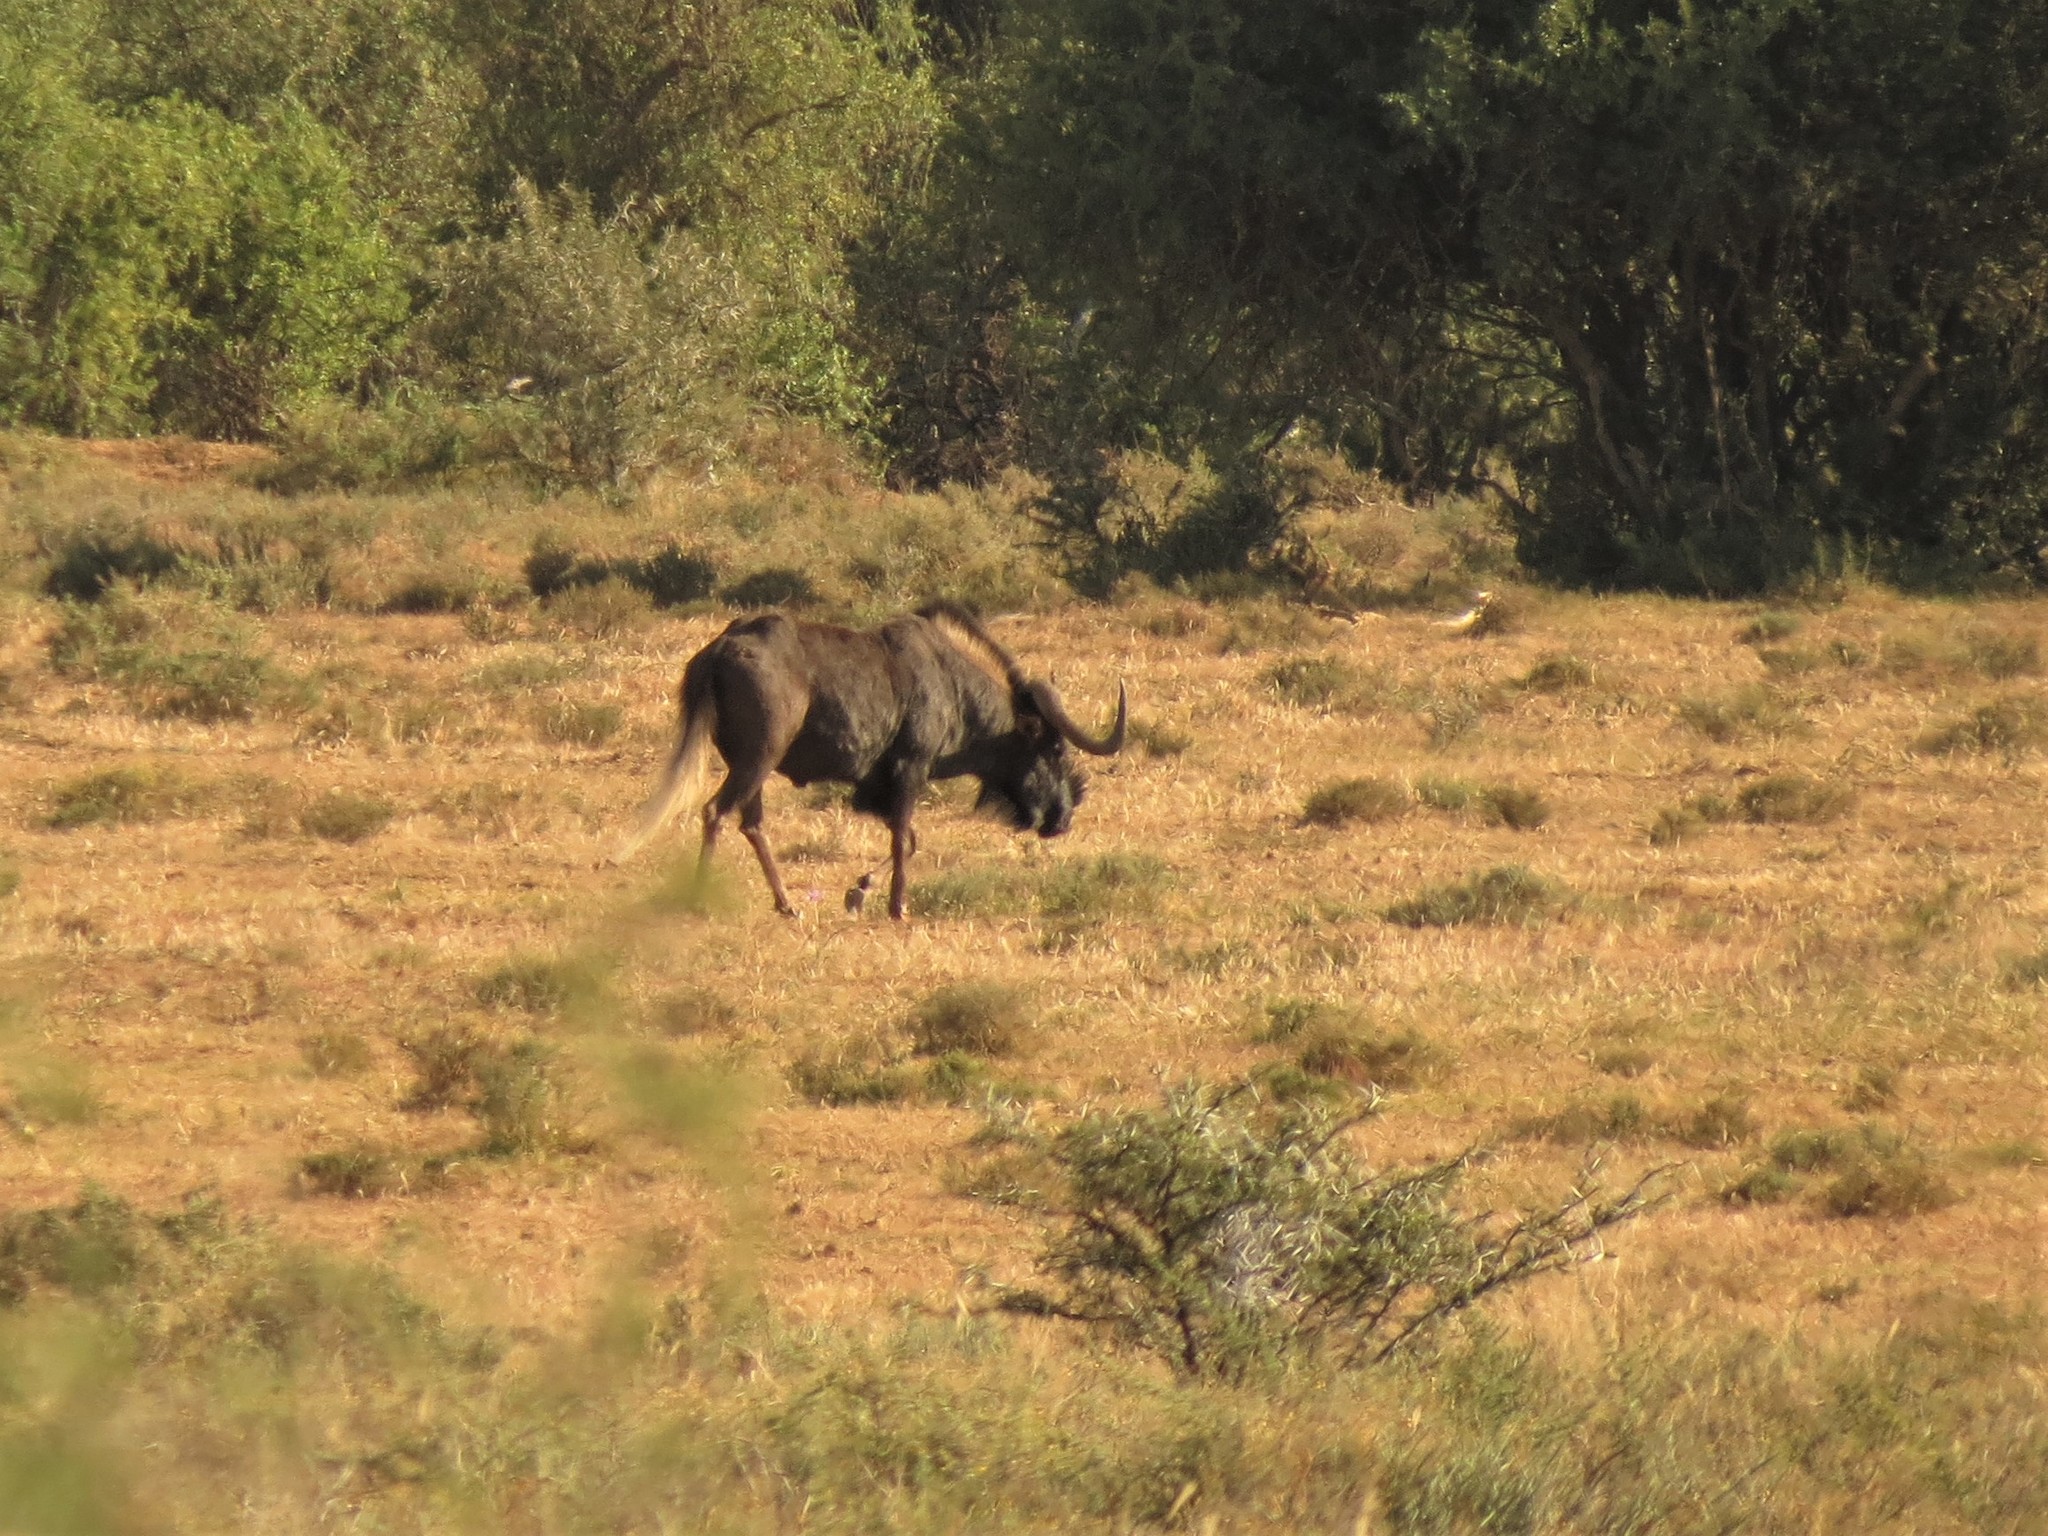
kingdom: Animalia
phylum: Chordata
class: Mammalia
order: Artiodactyla
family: Bovidae
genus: Connochaetes
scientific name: Connochaetes gnou
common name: Black wildebeest
